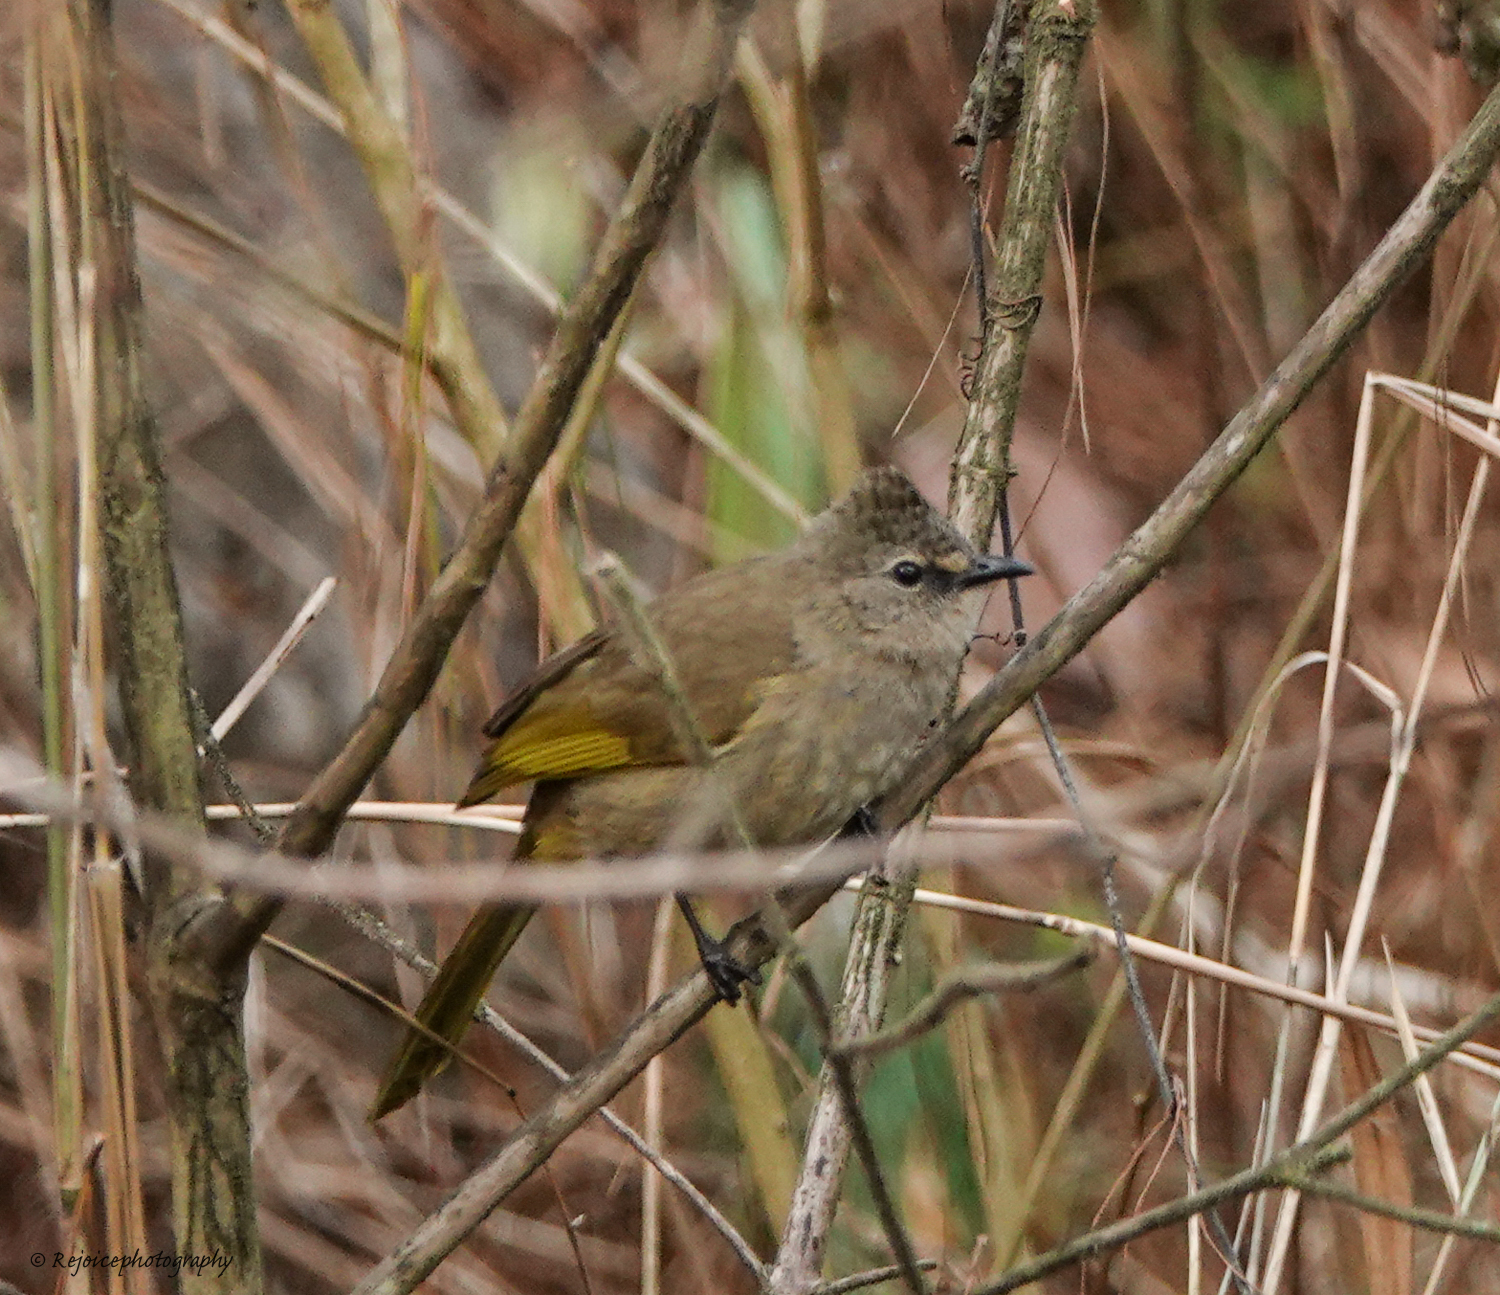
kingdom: Animalia
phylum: Chordata
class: Aves
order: Passeriformes
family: Pycnonotidae
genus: Pycnonotus
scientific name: Pycnonotus flavescens
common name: Flavescent bulbul
